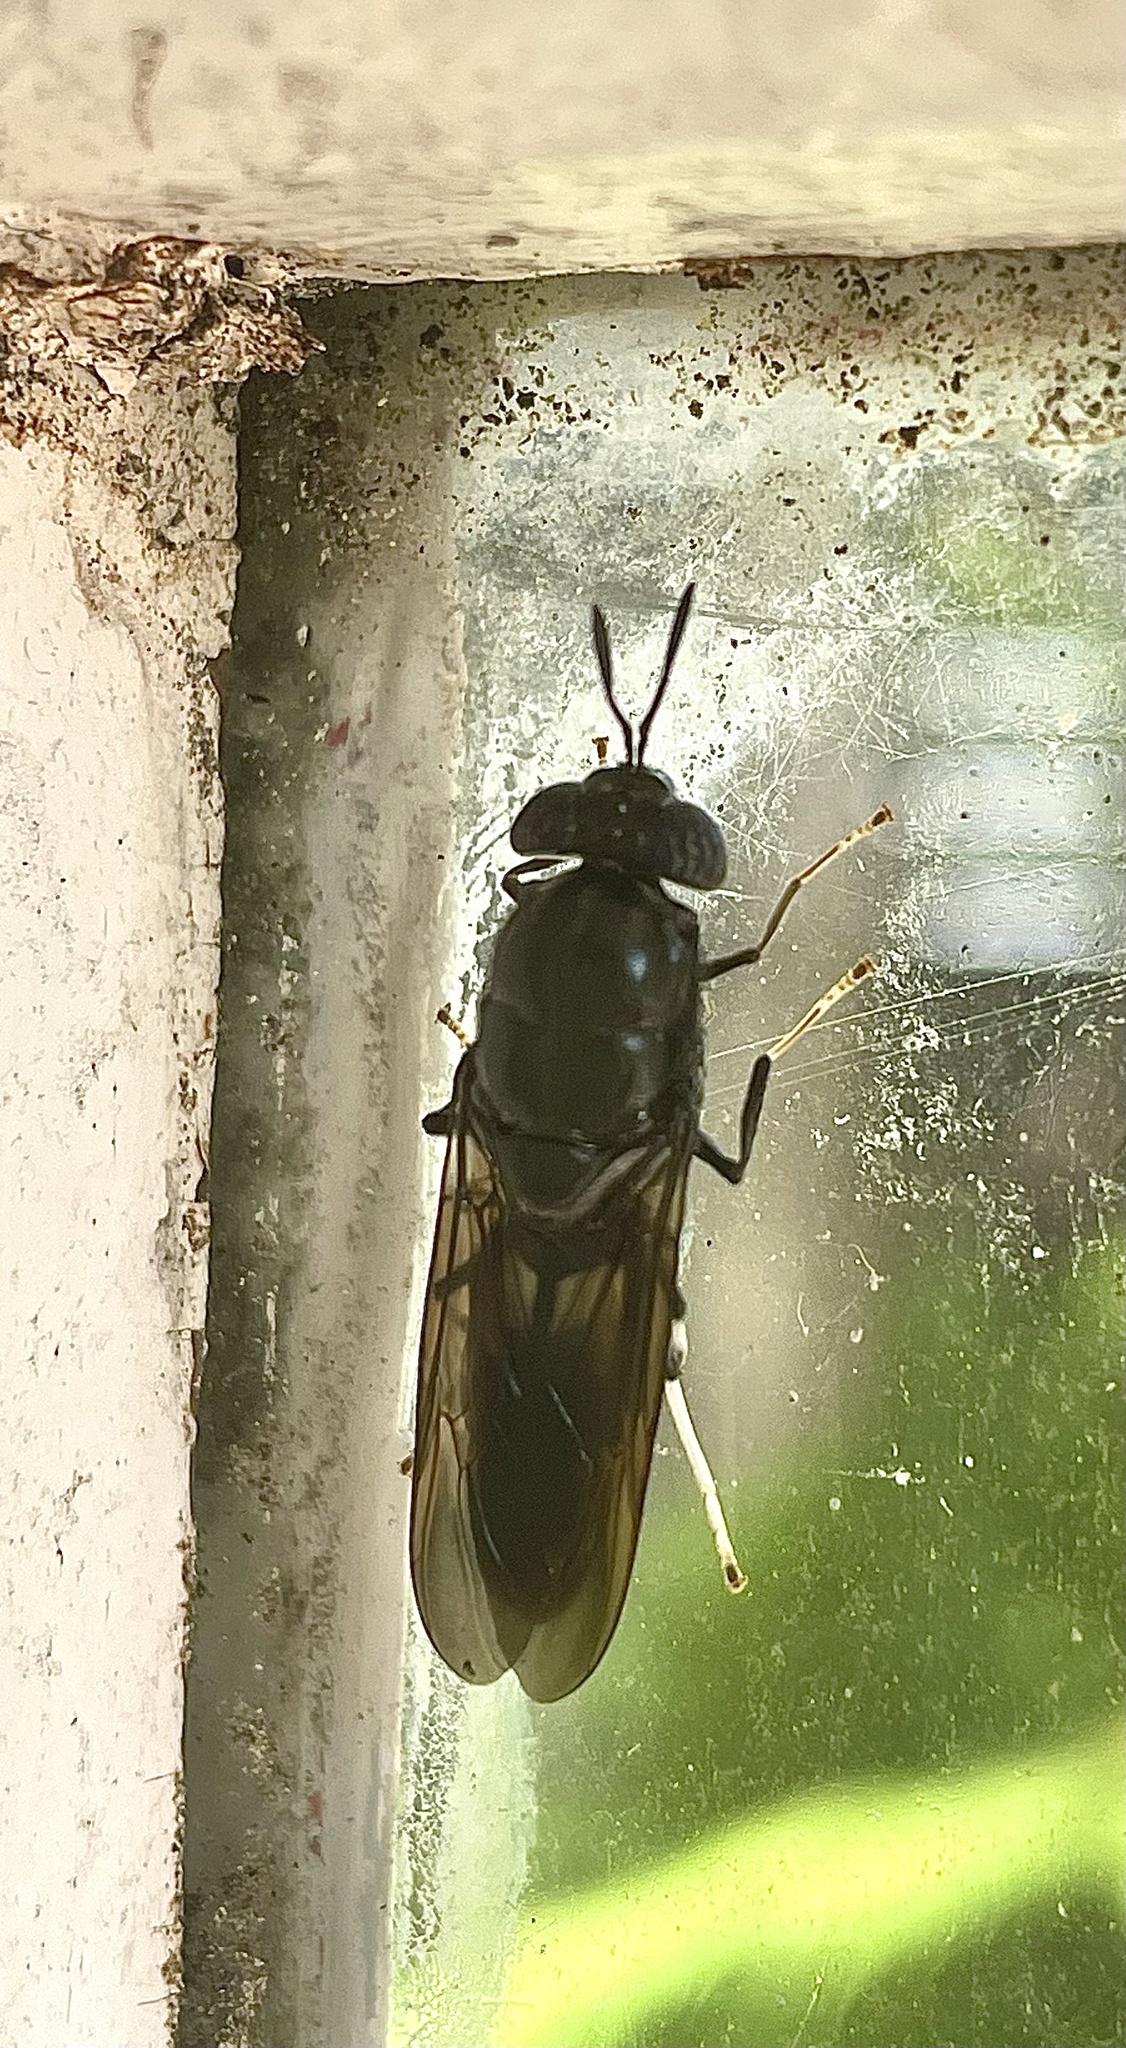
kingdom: Animalia
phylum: Arthropoda
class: Insecta
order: Diptera
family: Stratiomyidae
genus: Hermetia
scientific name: Hermetia illucens
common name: Black soldier fly
